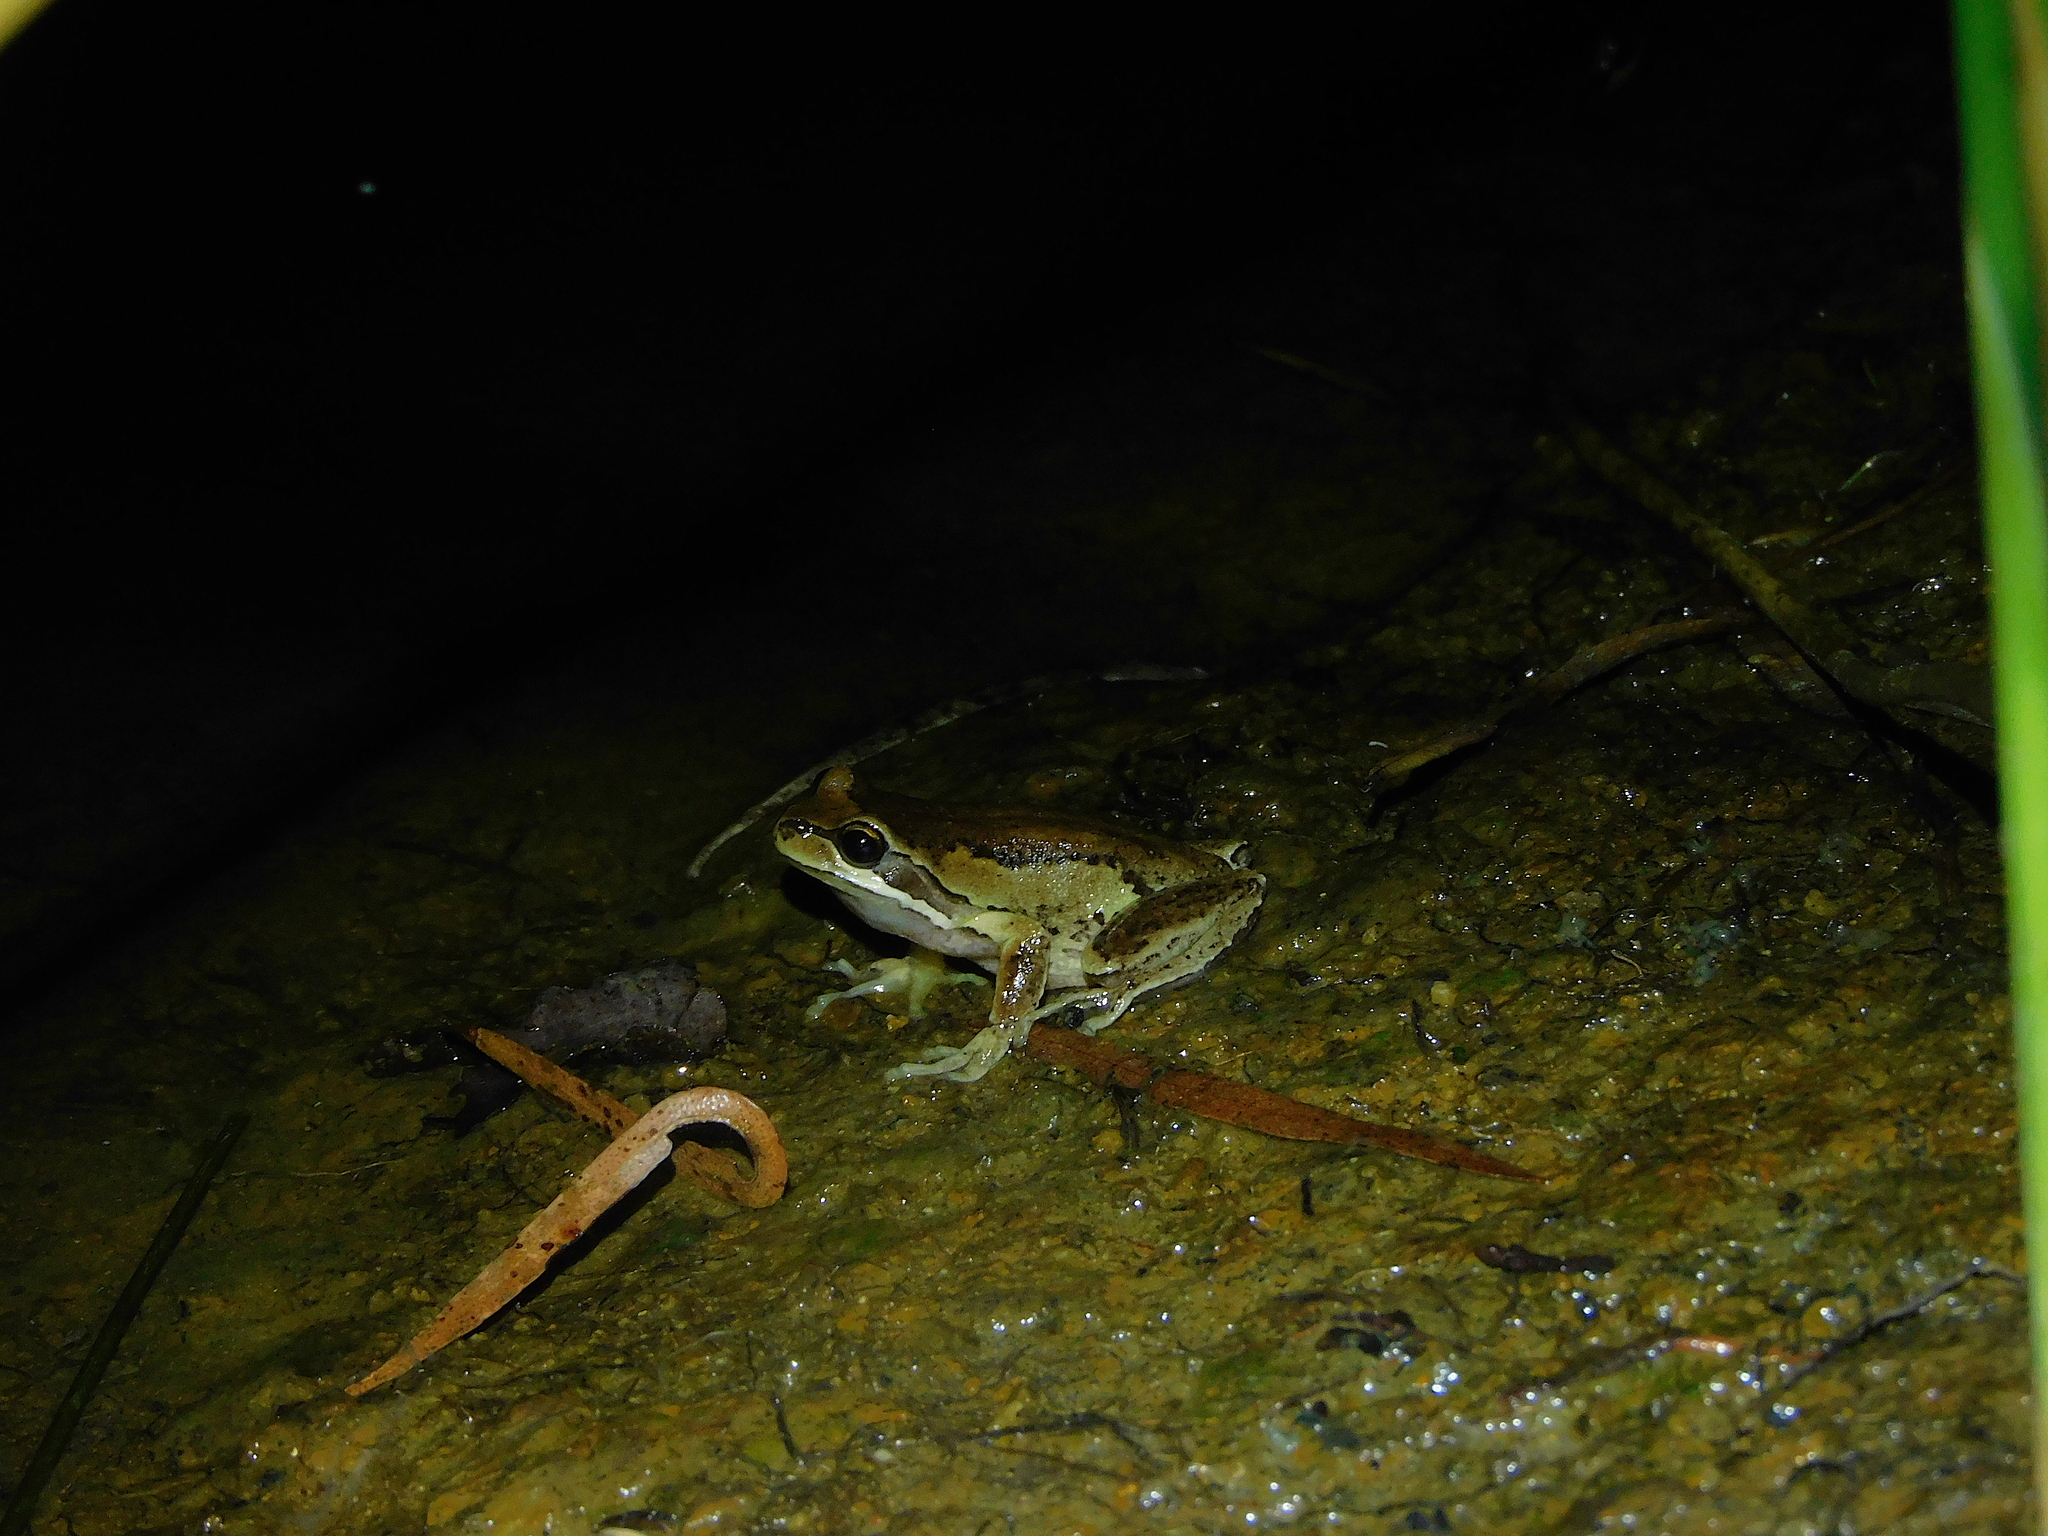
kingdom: Animalia
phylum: Chordata
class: Amphibia
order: Anura
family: Pelodryadidae
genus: Litoria
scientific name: Litoria ewingii
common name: Southern brown tree frog
